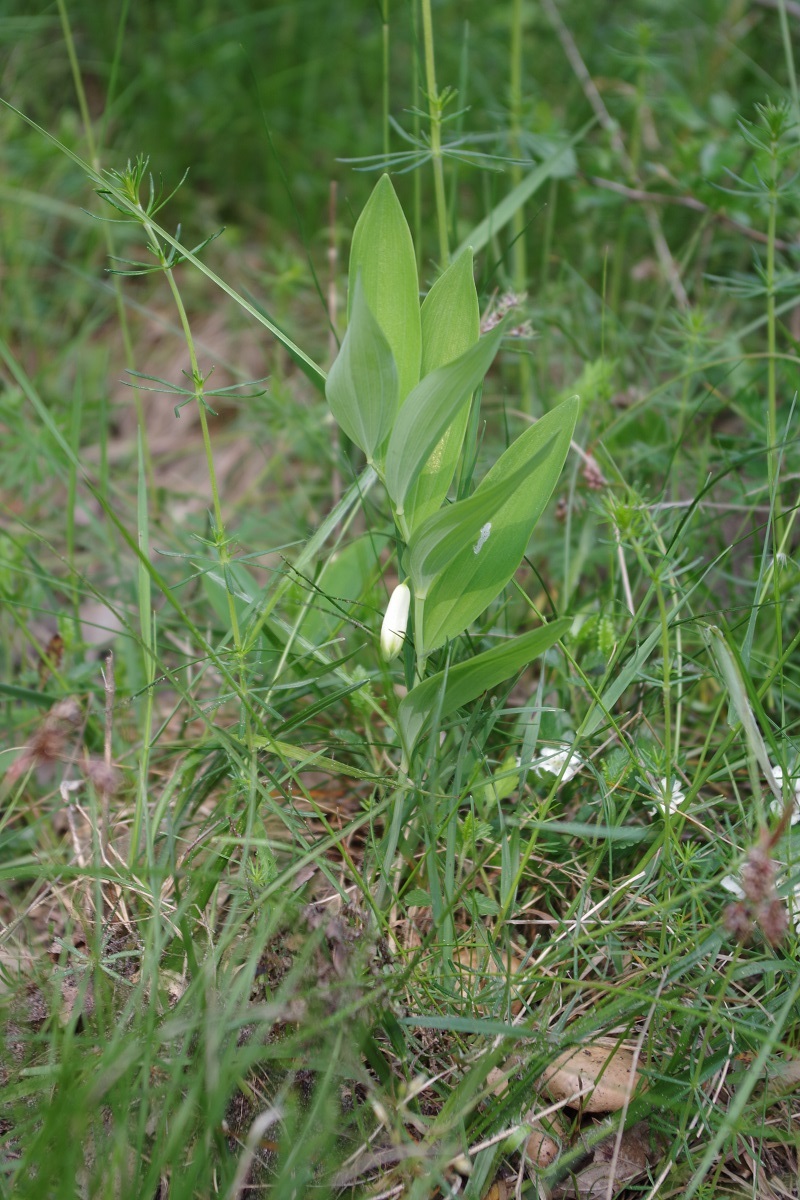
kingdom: Plantae
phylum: Tracheophyta
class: Liliopsida
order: Asparagales
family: Asparagaceae
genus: Polygonatum
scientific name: Polygonatum odoratum
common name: Angular solomon's-seal
